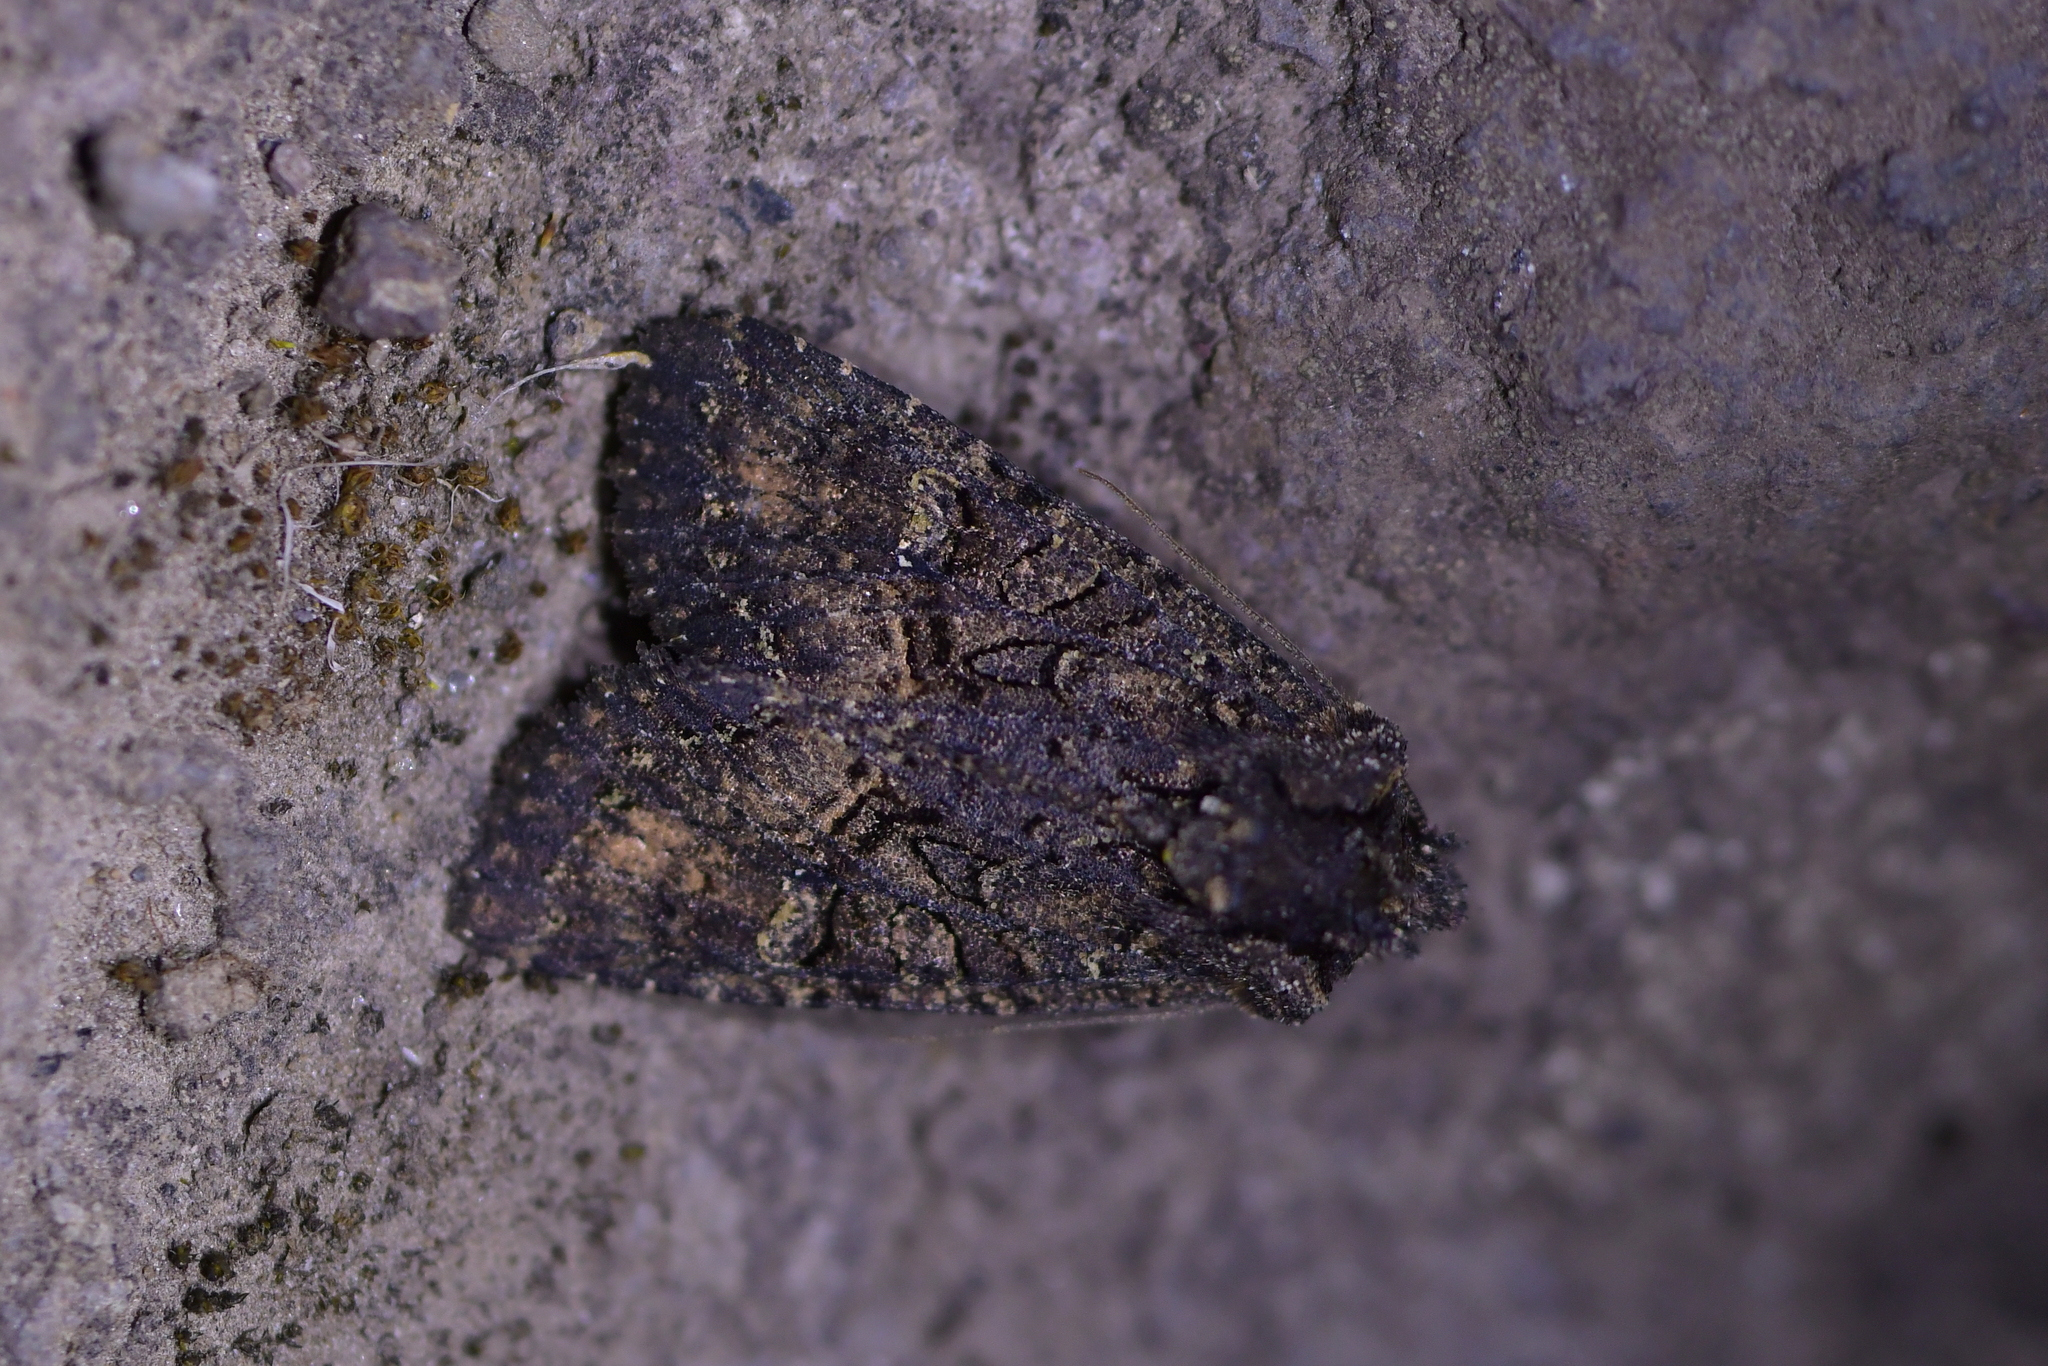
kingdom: Animalia
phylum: Arthropoda
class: Insecta
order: Lepidoptera
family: Noctuidae
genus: Meterana
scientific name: Meterana ochthistis
